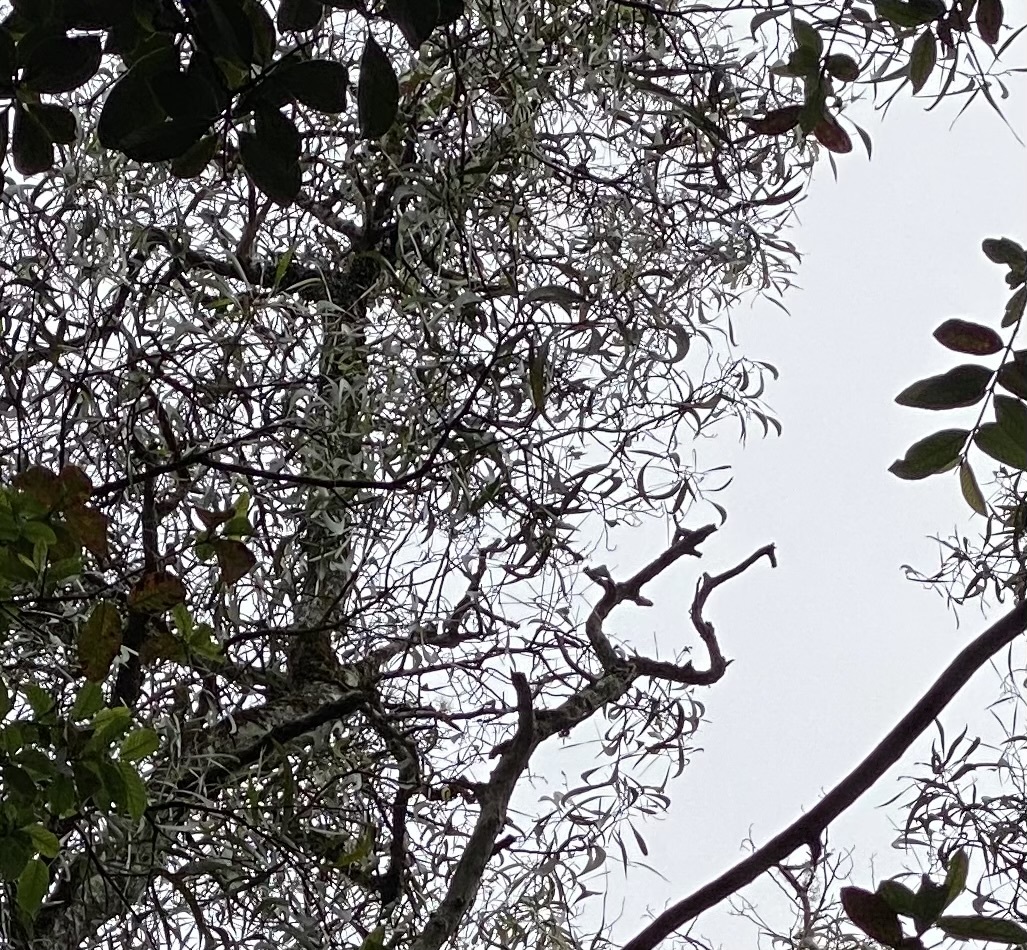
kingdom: Plantae
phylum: Tracheophyta
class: Magnoliopsida
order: Fabales
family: Fabaceae
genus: Acacia
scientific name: Acacia koa
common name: Gray koa
